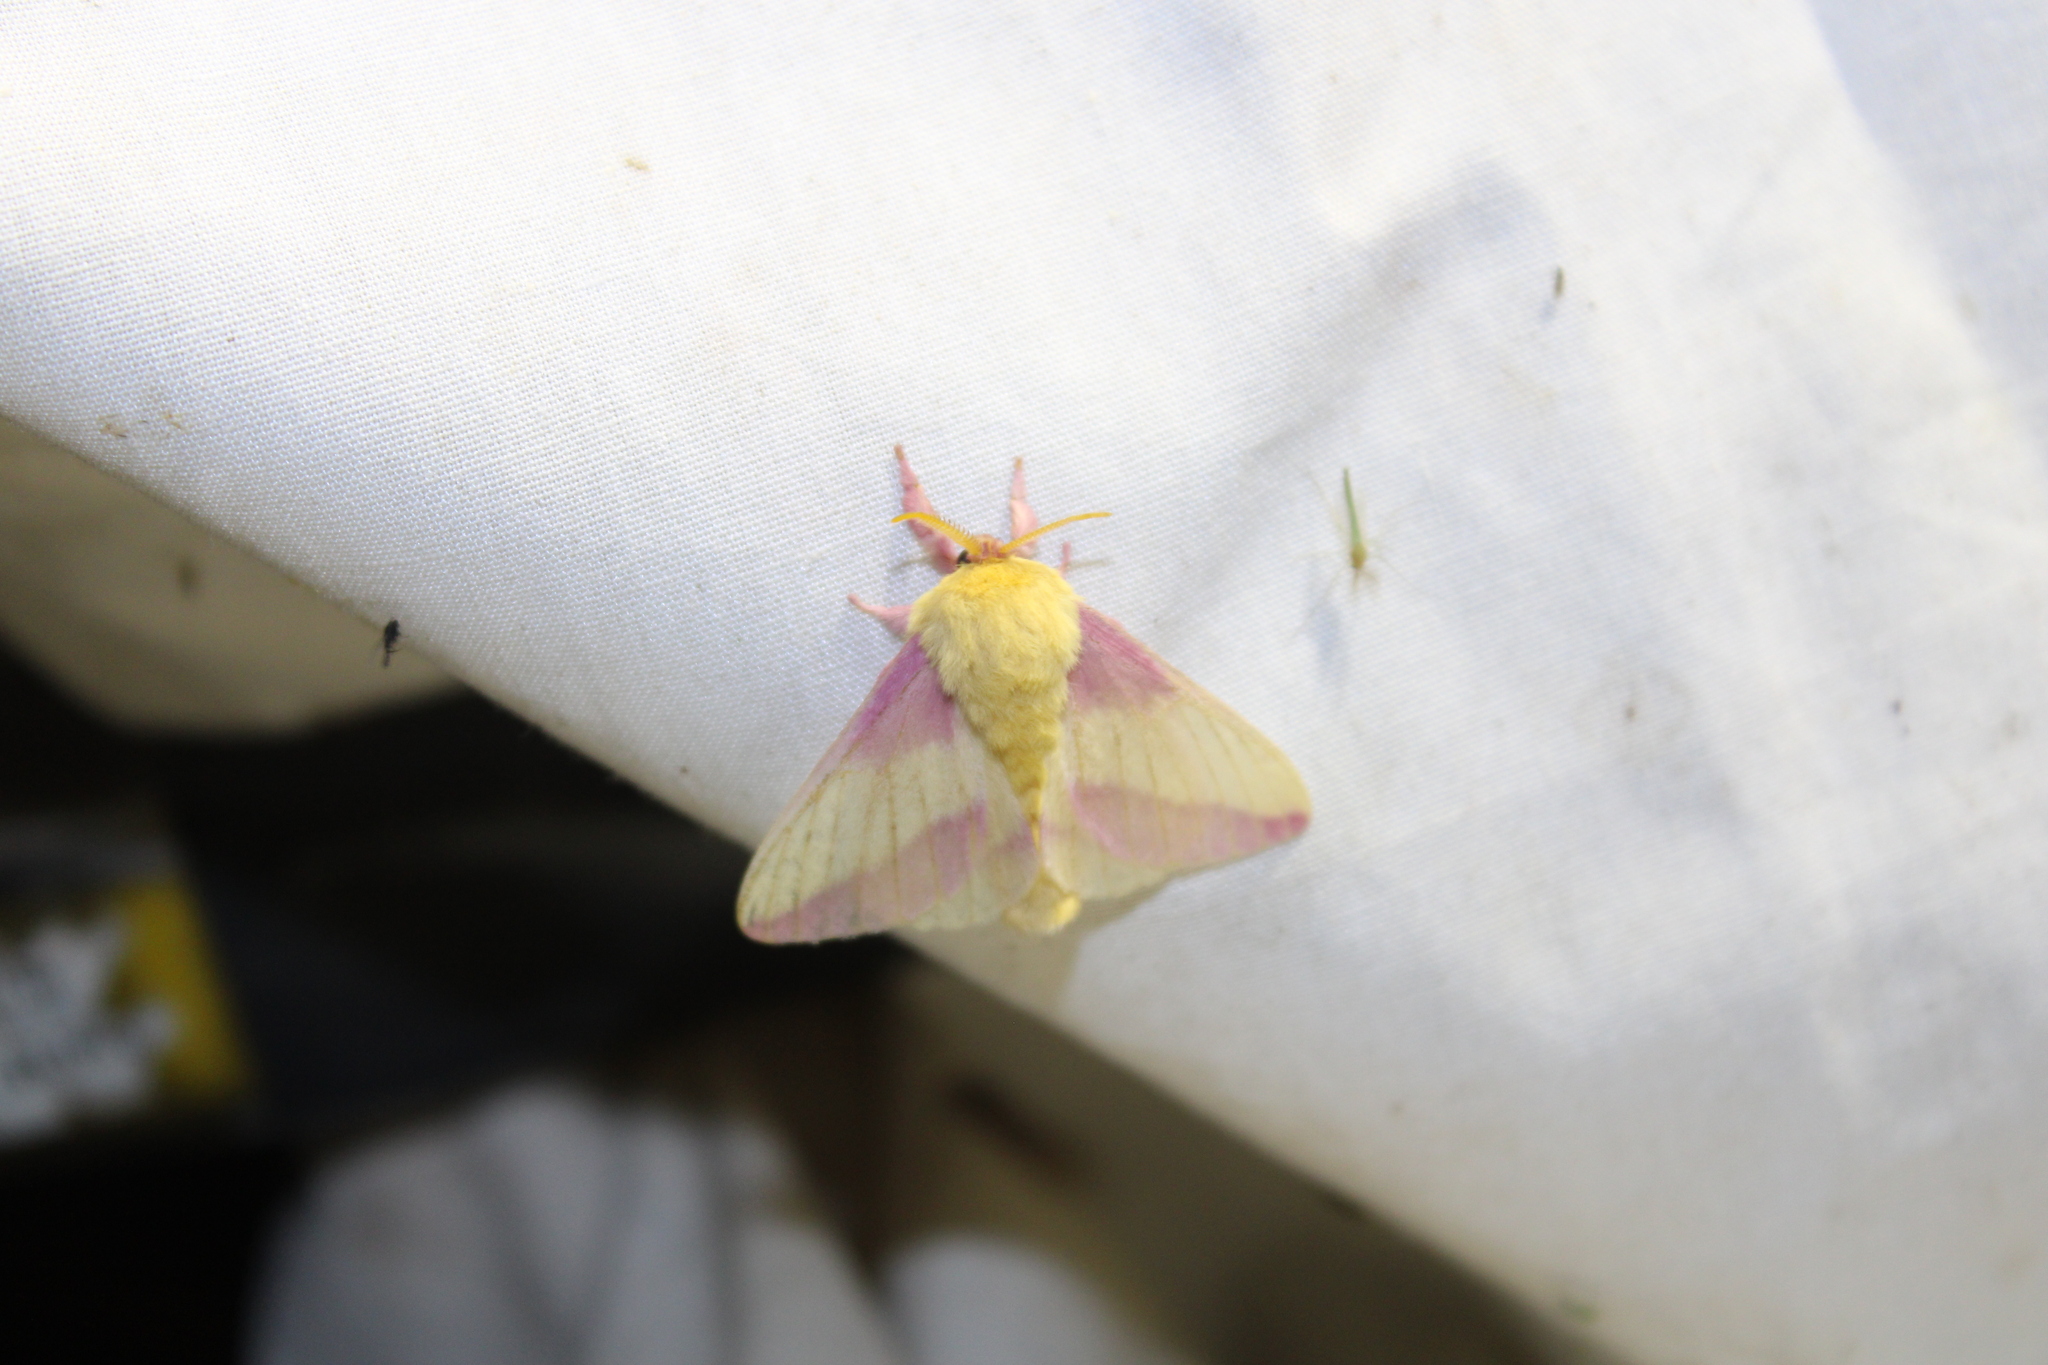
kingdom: Animalia
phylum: Arthropoda
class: Insecta
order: Lepidoptera
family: Saturniidae
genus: Dryocampa
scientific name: Dryocampa rubicunda
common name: Rosy maple moth
